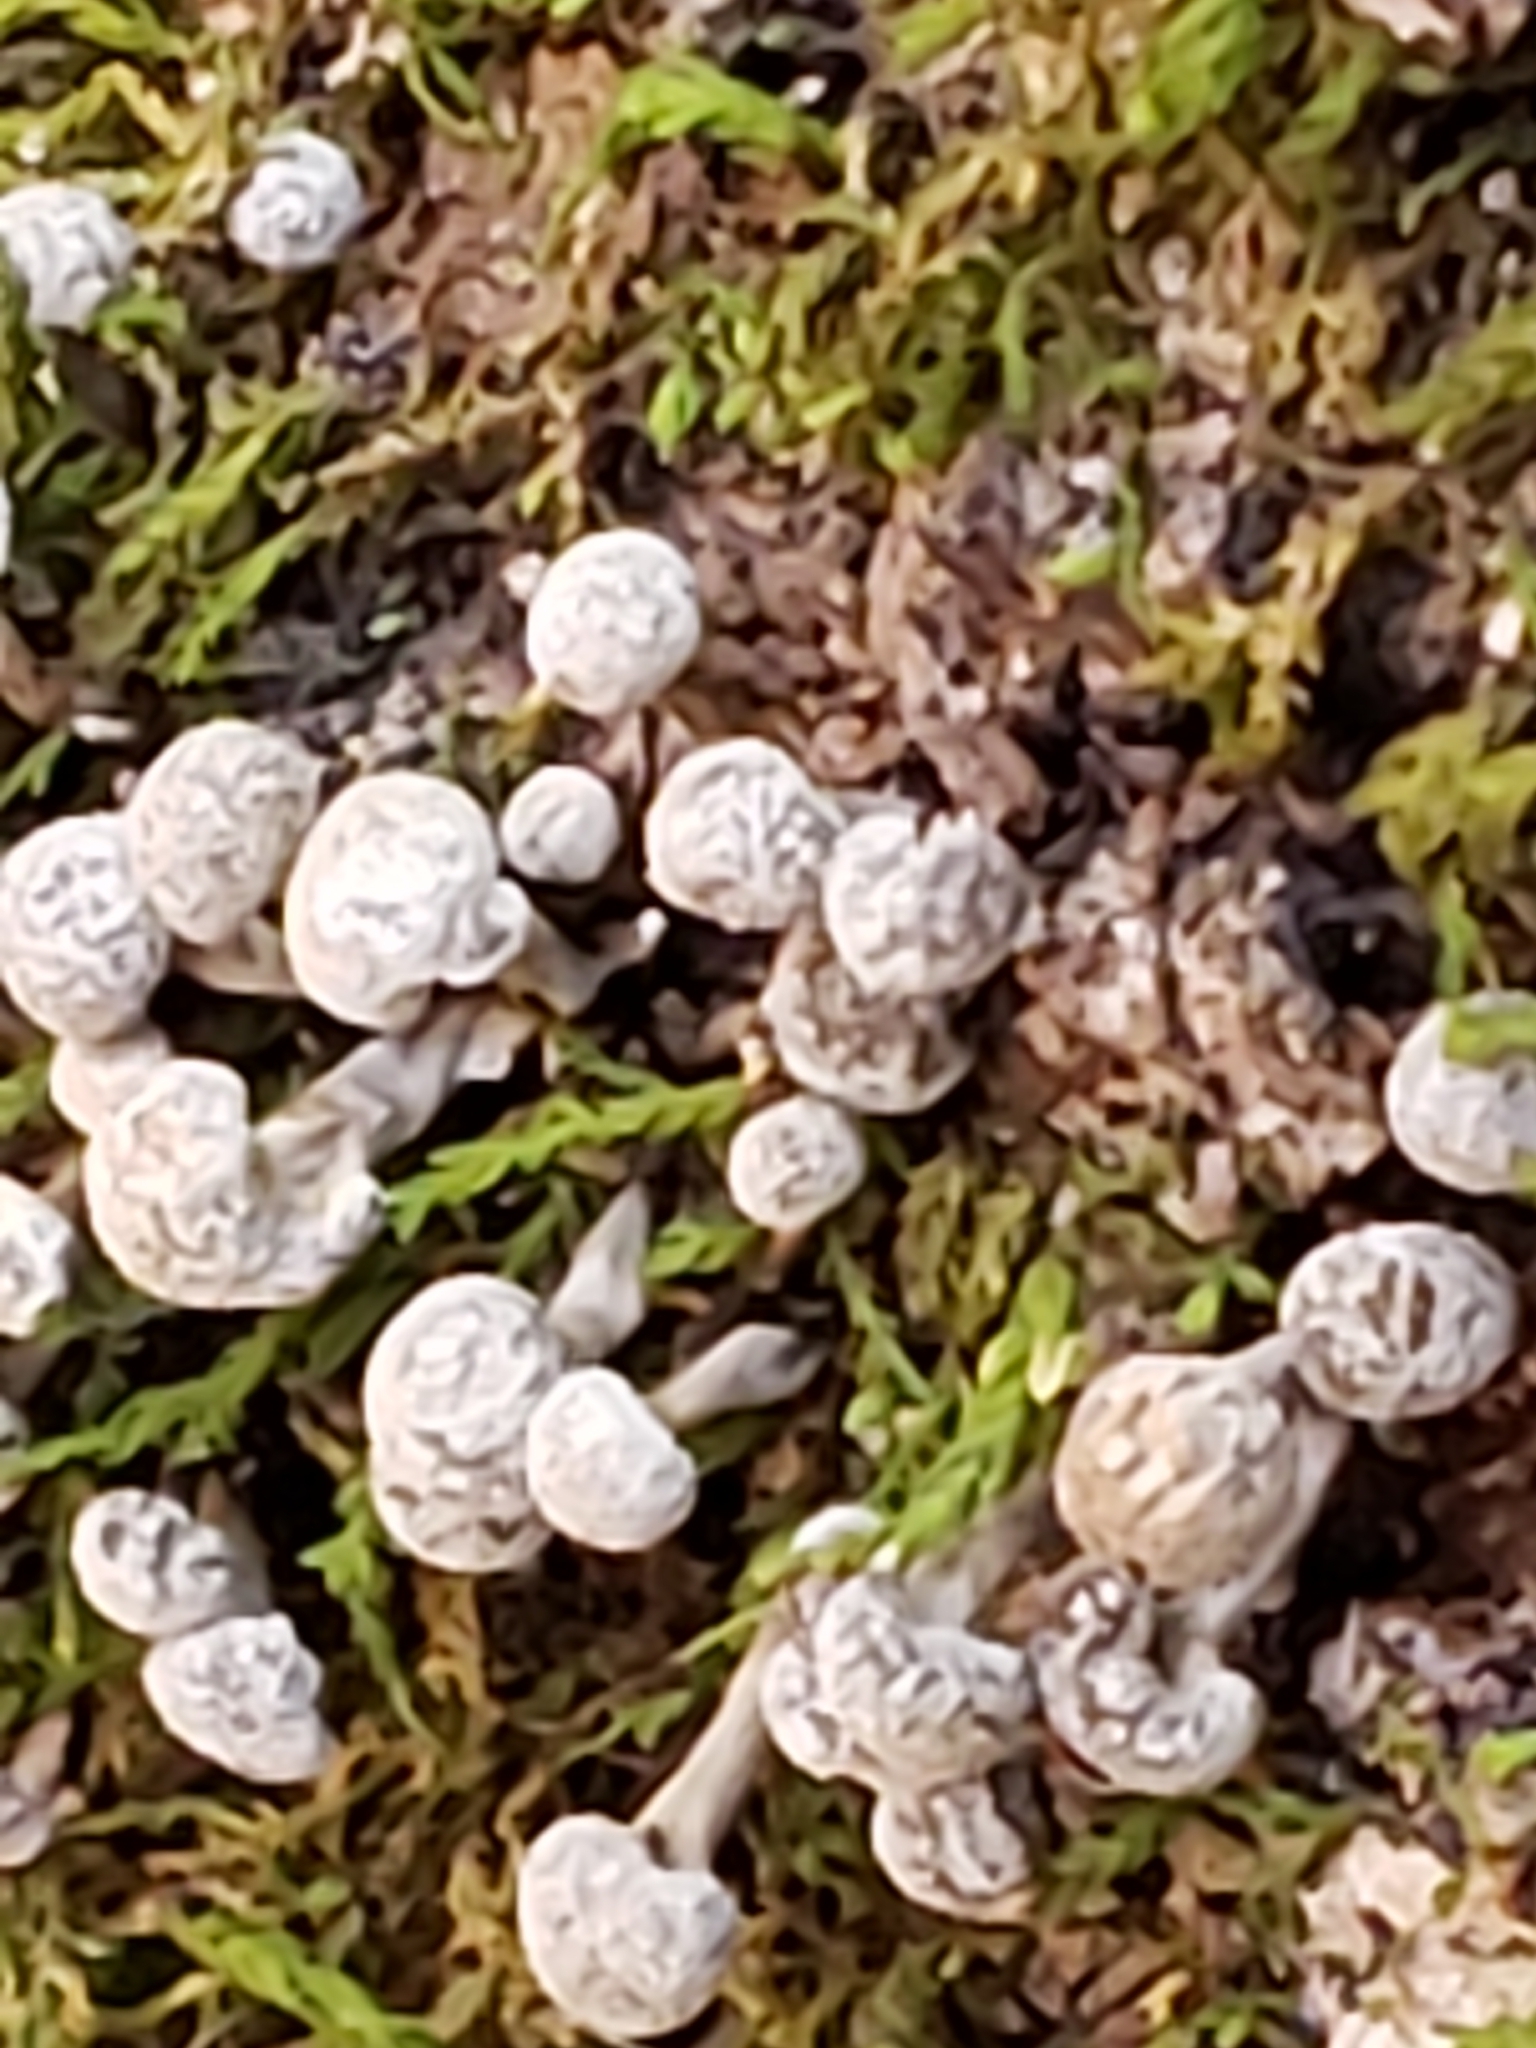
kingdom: Fungi
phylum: Basidiomycota
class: Atractiellomycetes
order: Atractiellales
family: Phleogenaceae
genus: Phleogena
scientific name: Phleogena faginea
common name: Fenugreek stalkball
